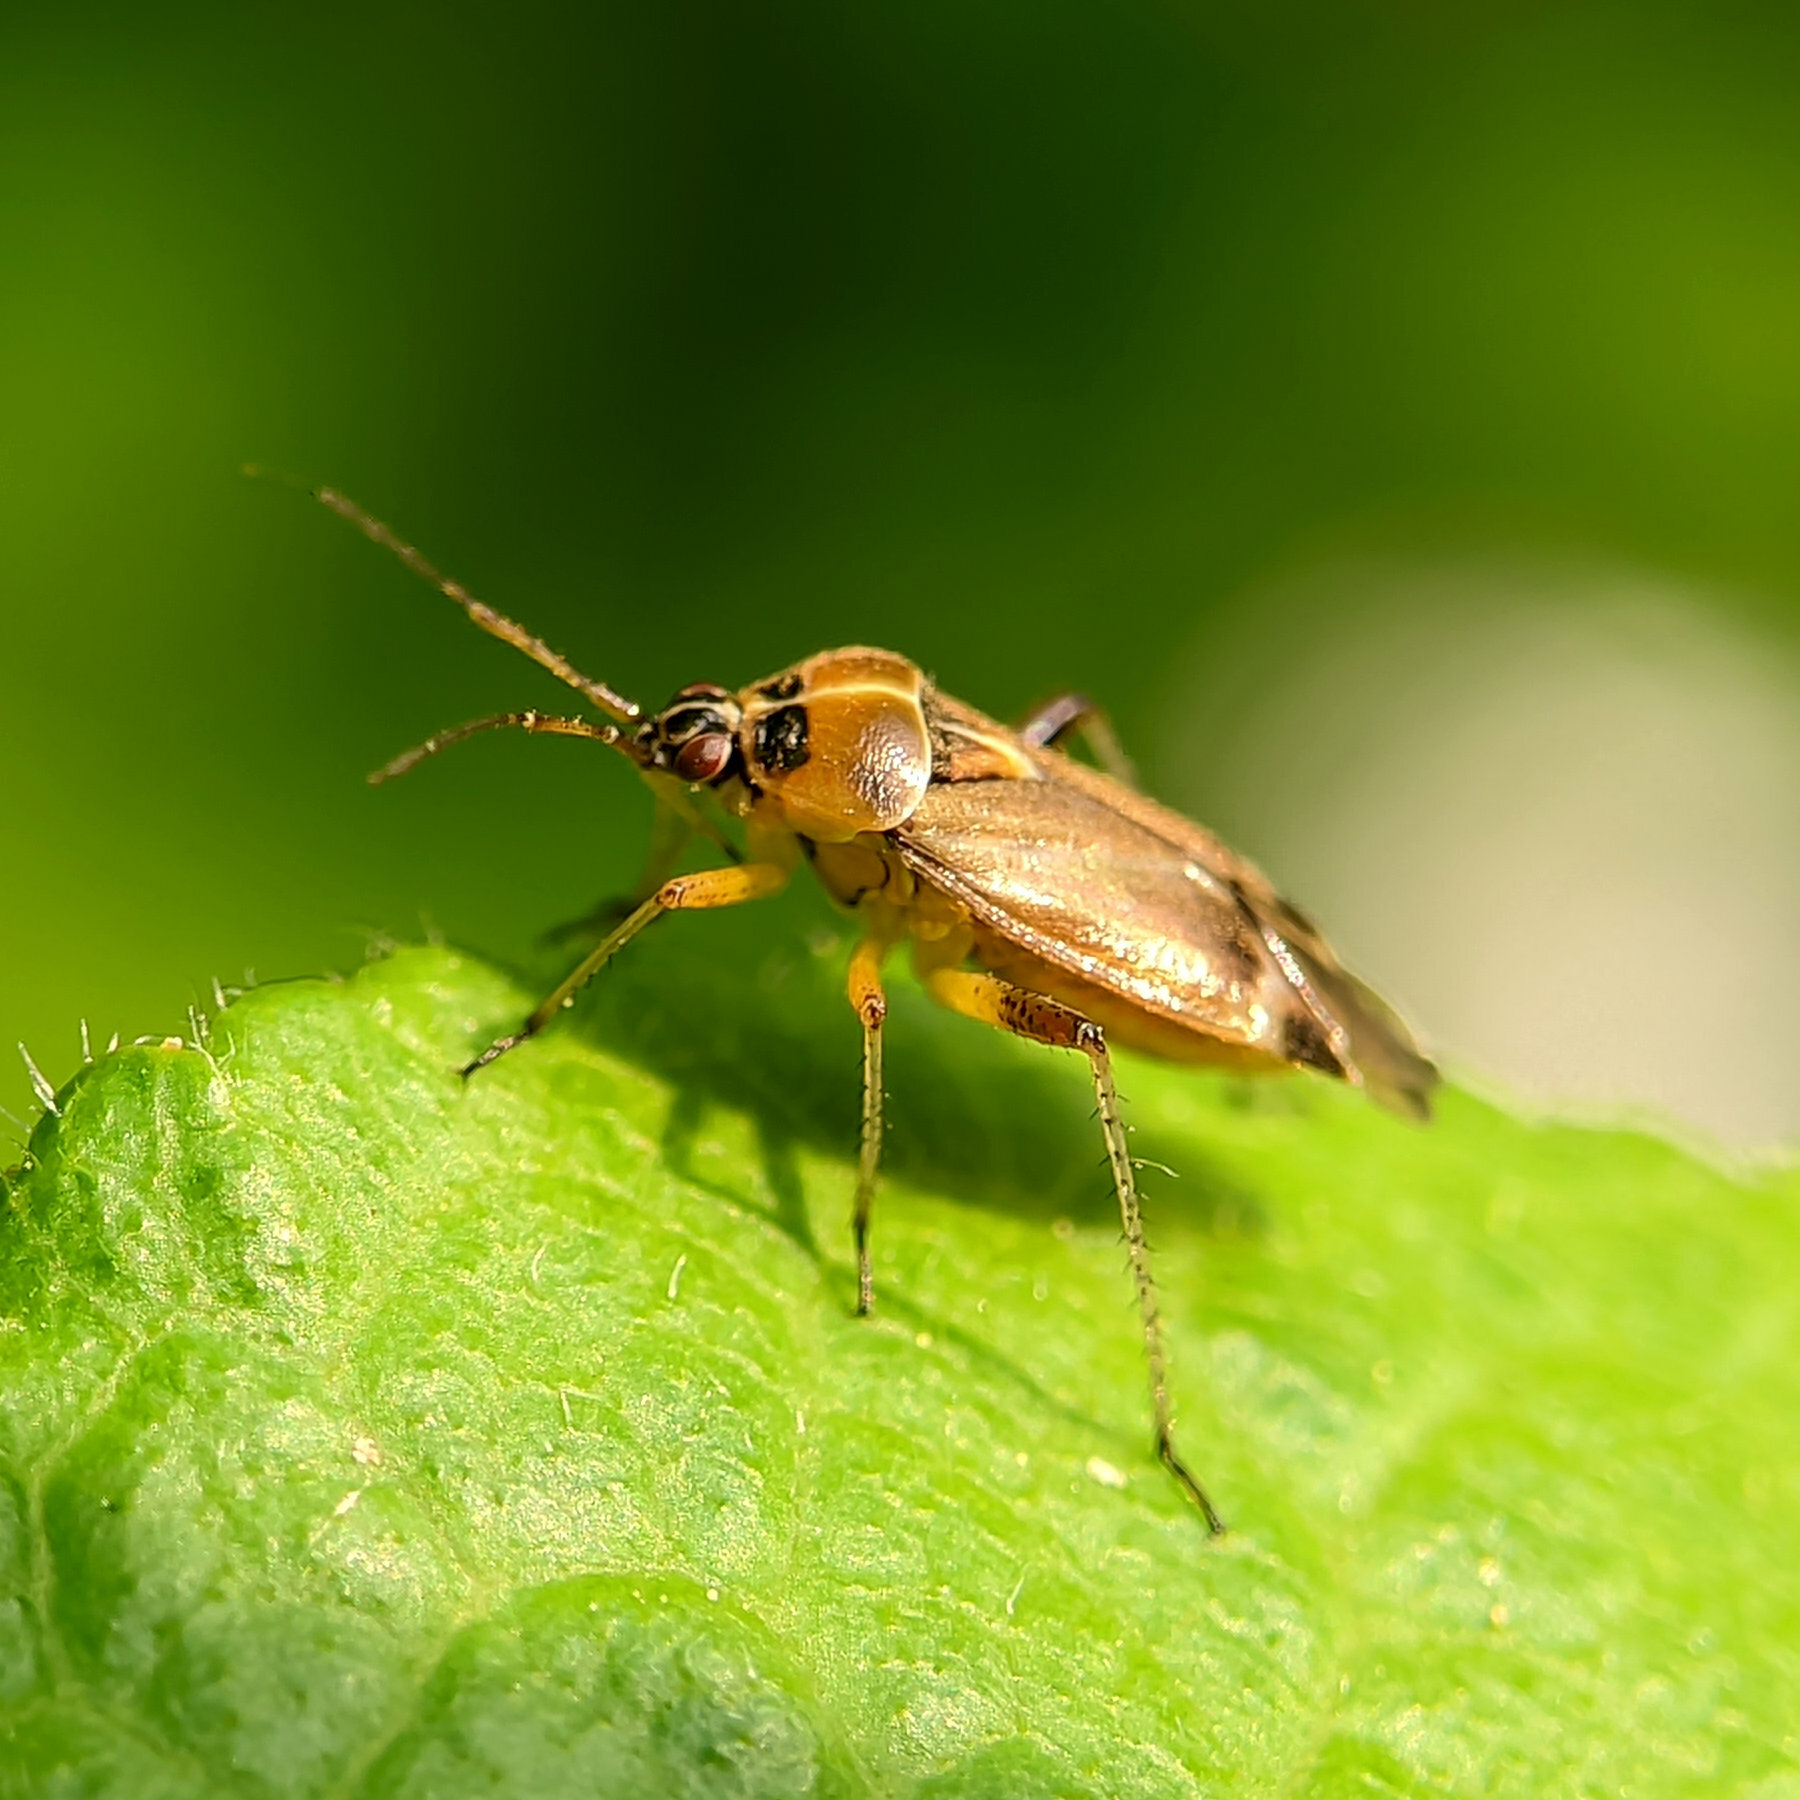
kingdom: Animalia
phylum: Arthropoda
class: Insecta
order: Hemiptera
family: Miridae
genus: Harpocera
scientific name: Harpocera thoracica
